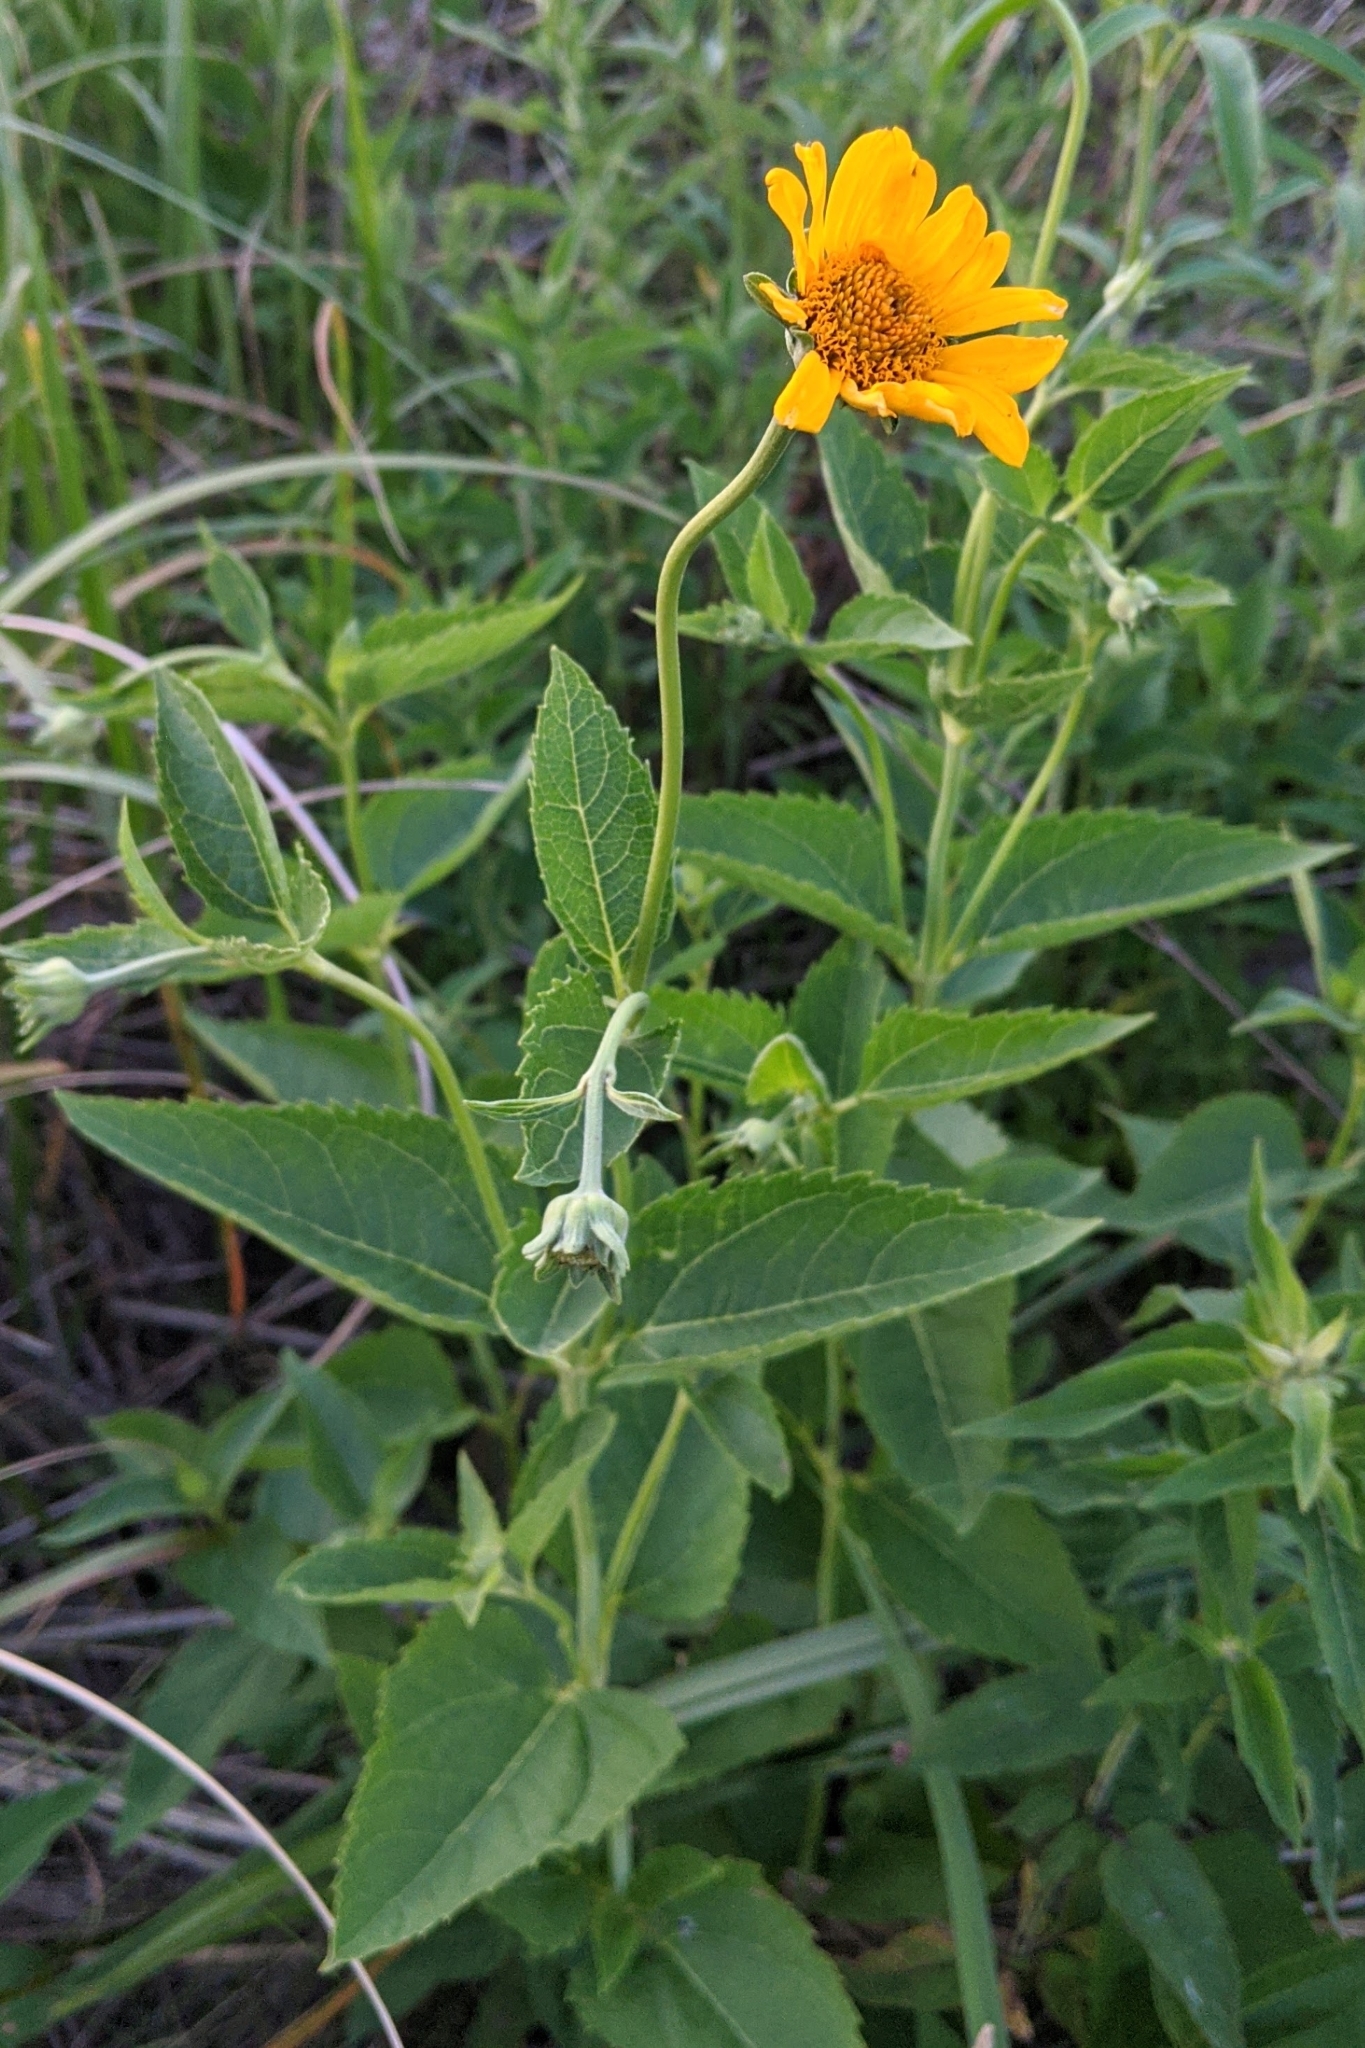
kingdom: Plantae
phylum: Tracheophyta
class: Magnoliopsida
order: Asterales
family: Asteraceae
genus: Heliopsis
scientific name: Heliopsis helianthoides
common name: False sunflower
